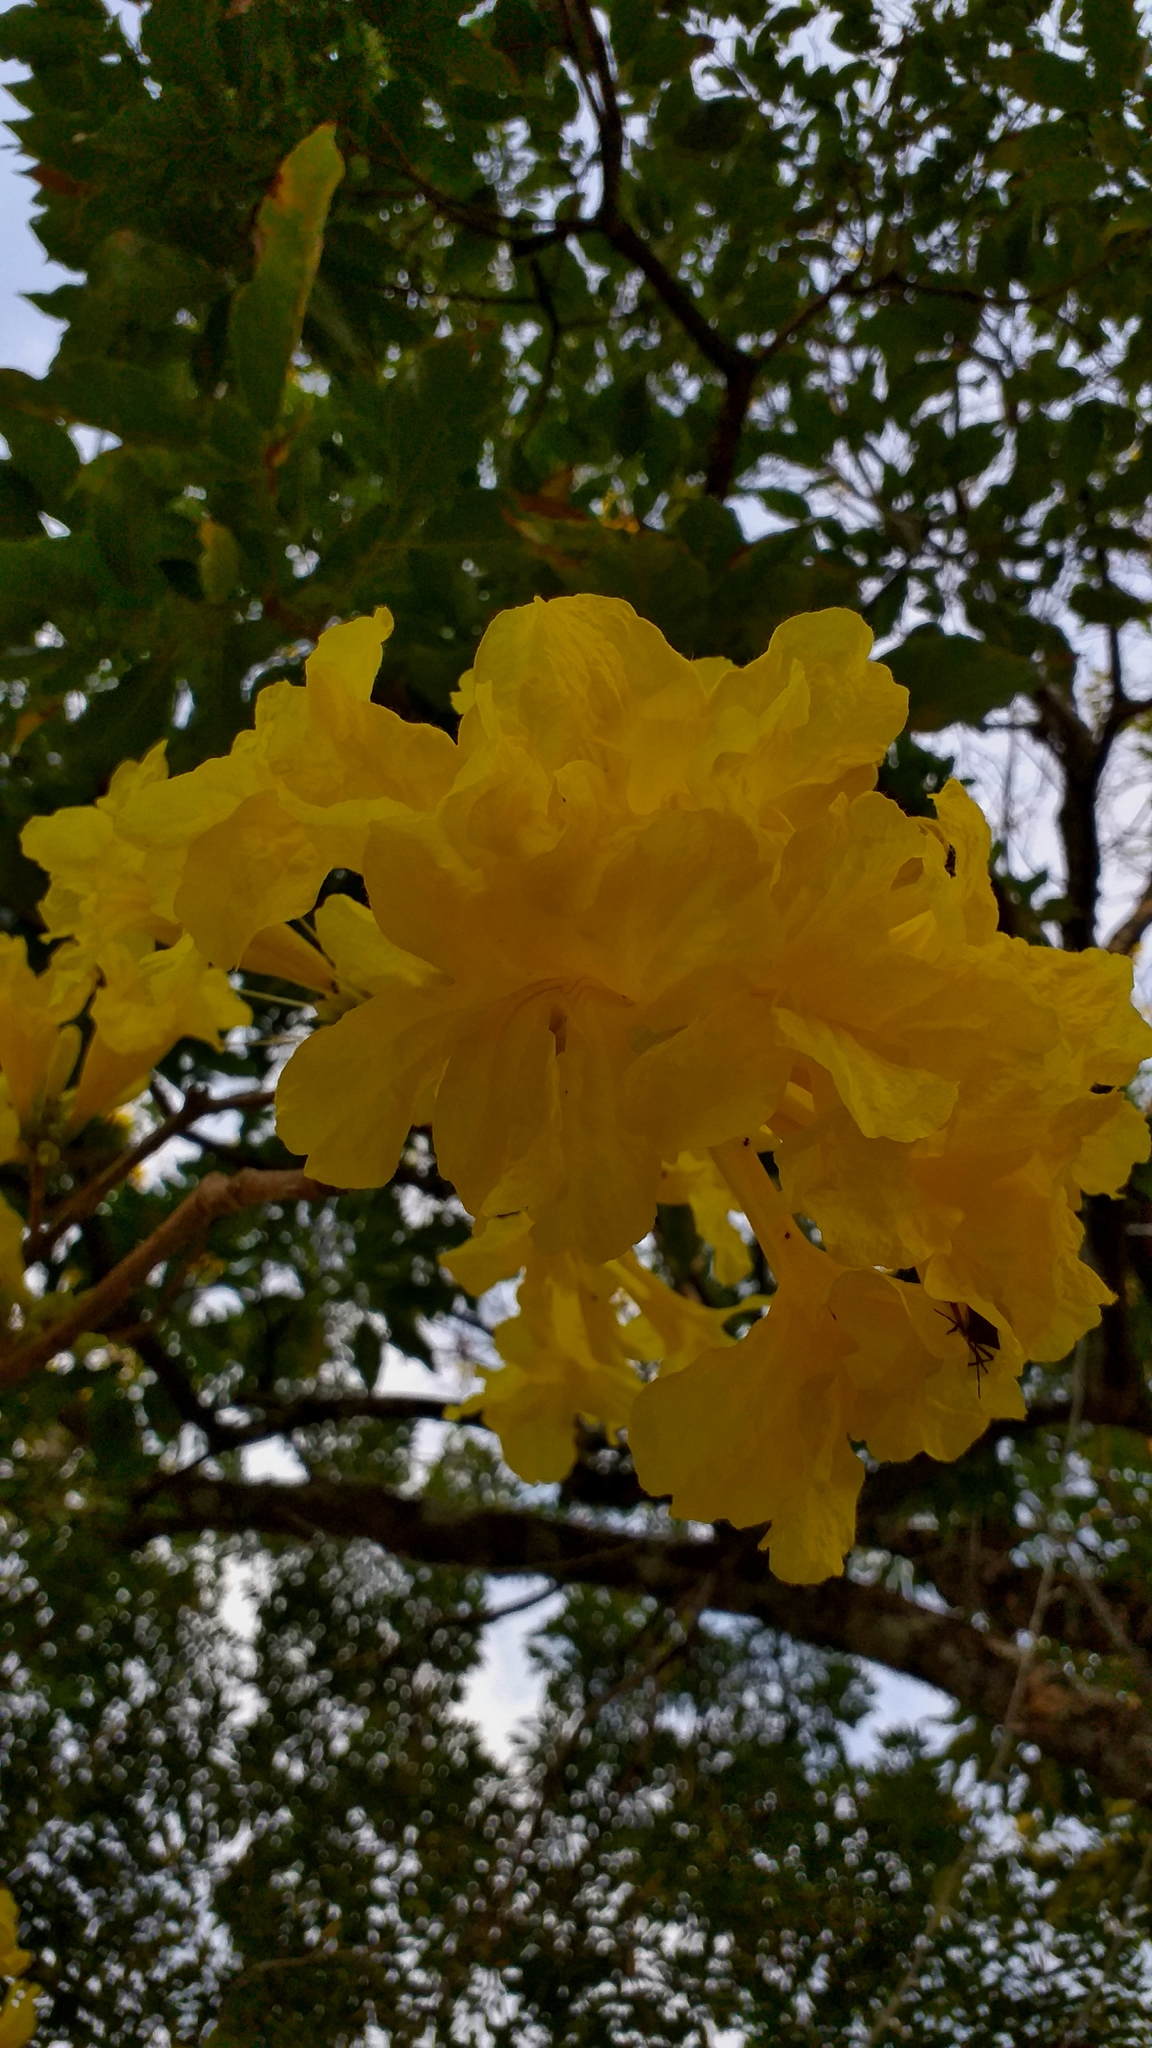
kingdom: Plantae
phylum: Tracheophyta
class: Magnoliopsida
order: Lamiales
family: Bignoniaceae
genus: Handroanthus
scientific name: Handroanthus chrysanthus
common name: Trumpet trees
